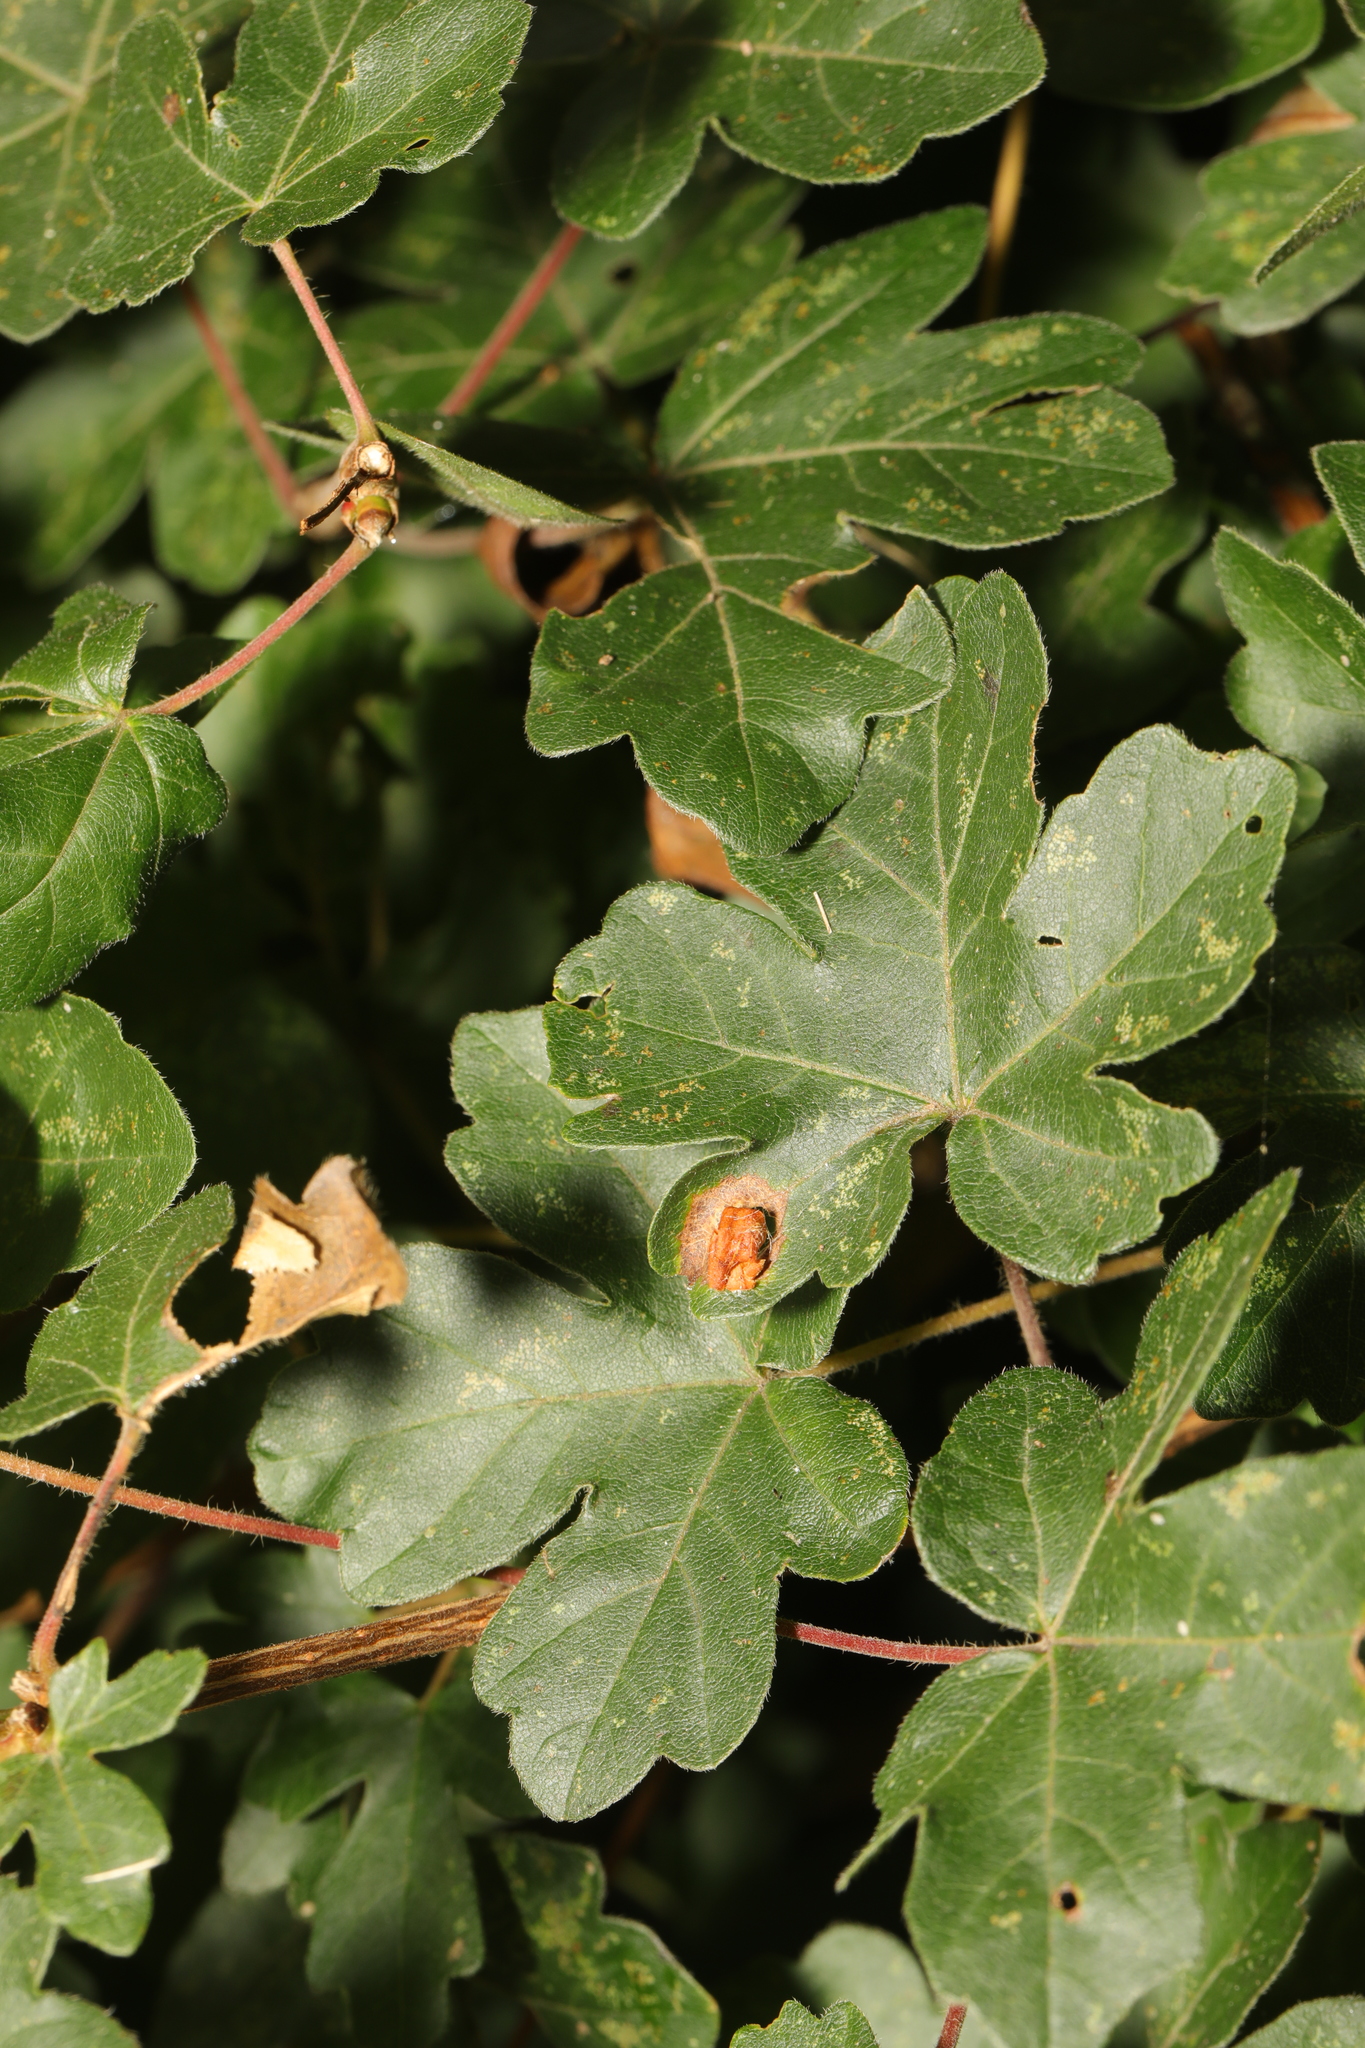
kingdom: Plantae
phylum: Tracheophyta
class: Magnoliopsida
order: Sapindales
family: Sapindaceae
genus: Acer
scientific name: Acer campestre
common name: Field maple
